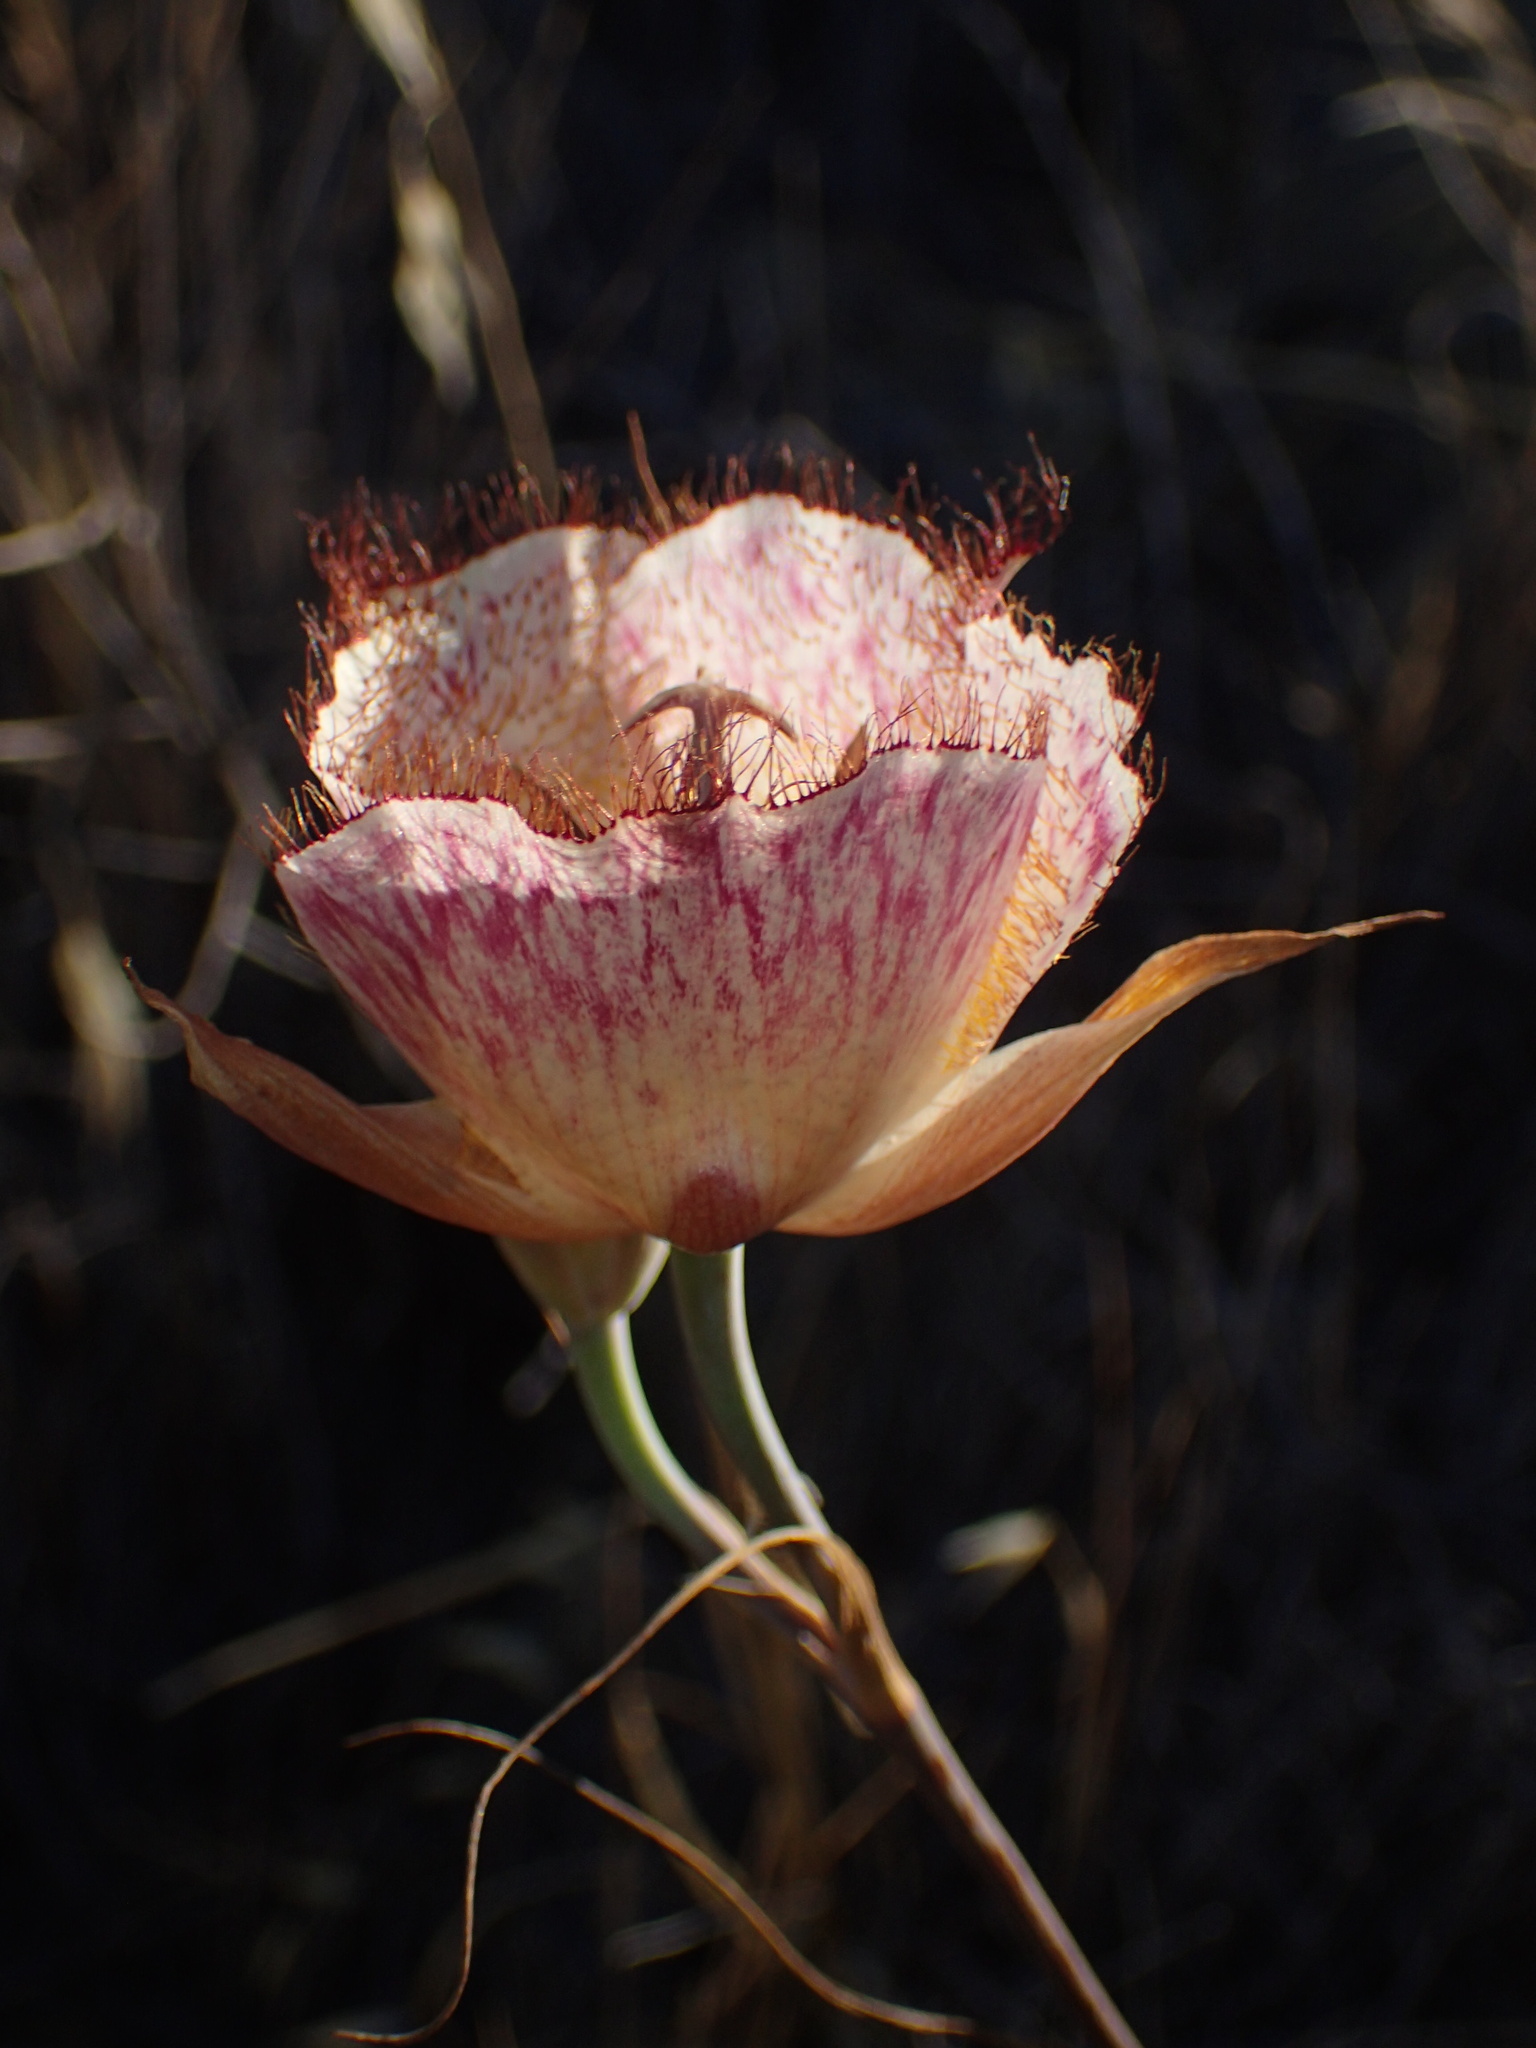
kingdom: Plantae
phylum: Tracheophyta
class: Liliopsida
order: Liliales
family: Liliaceae
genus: Calochortus
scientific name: Calochortus fimbriatus
